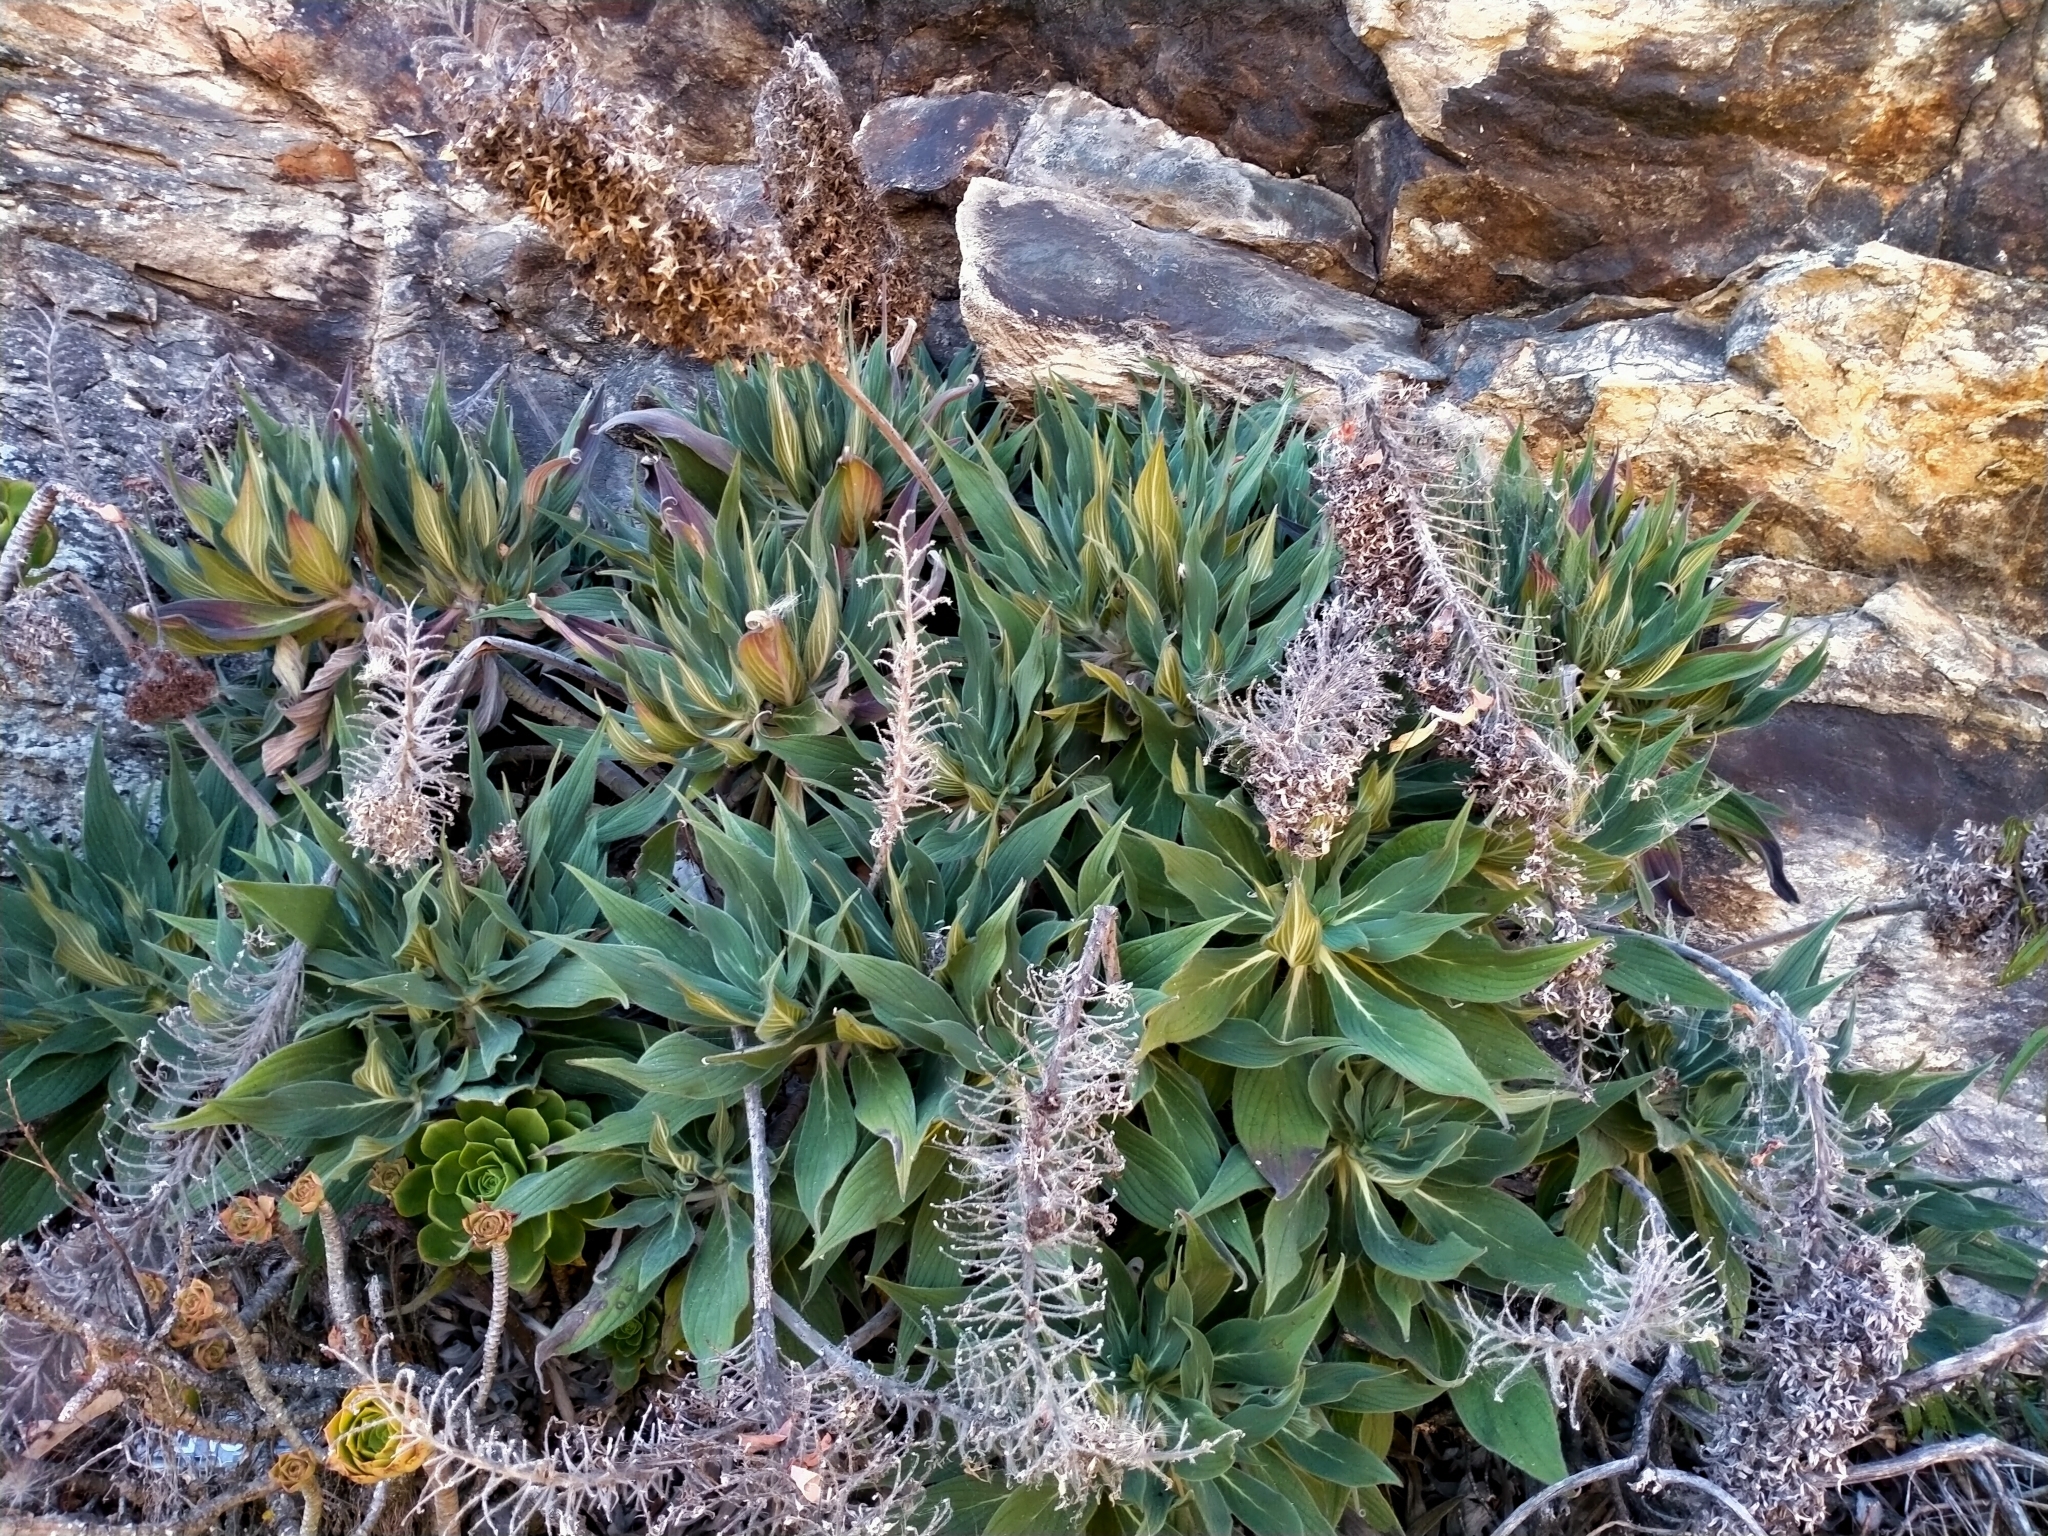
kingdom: Plantae
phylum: Tracheophyta
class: Magnoliopsida
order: Boraginales
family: Boraginaceae
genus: Echium
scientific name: Echium candicans
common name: Pride of madeira
